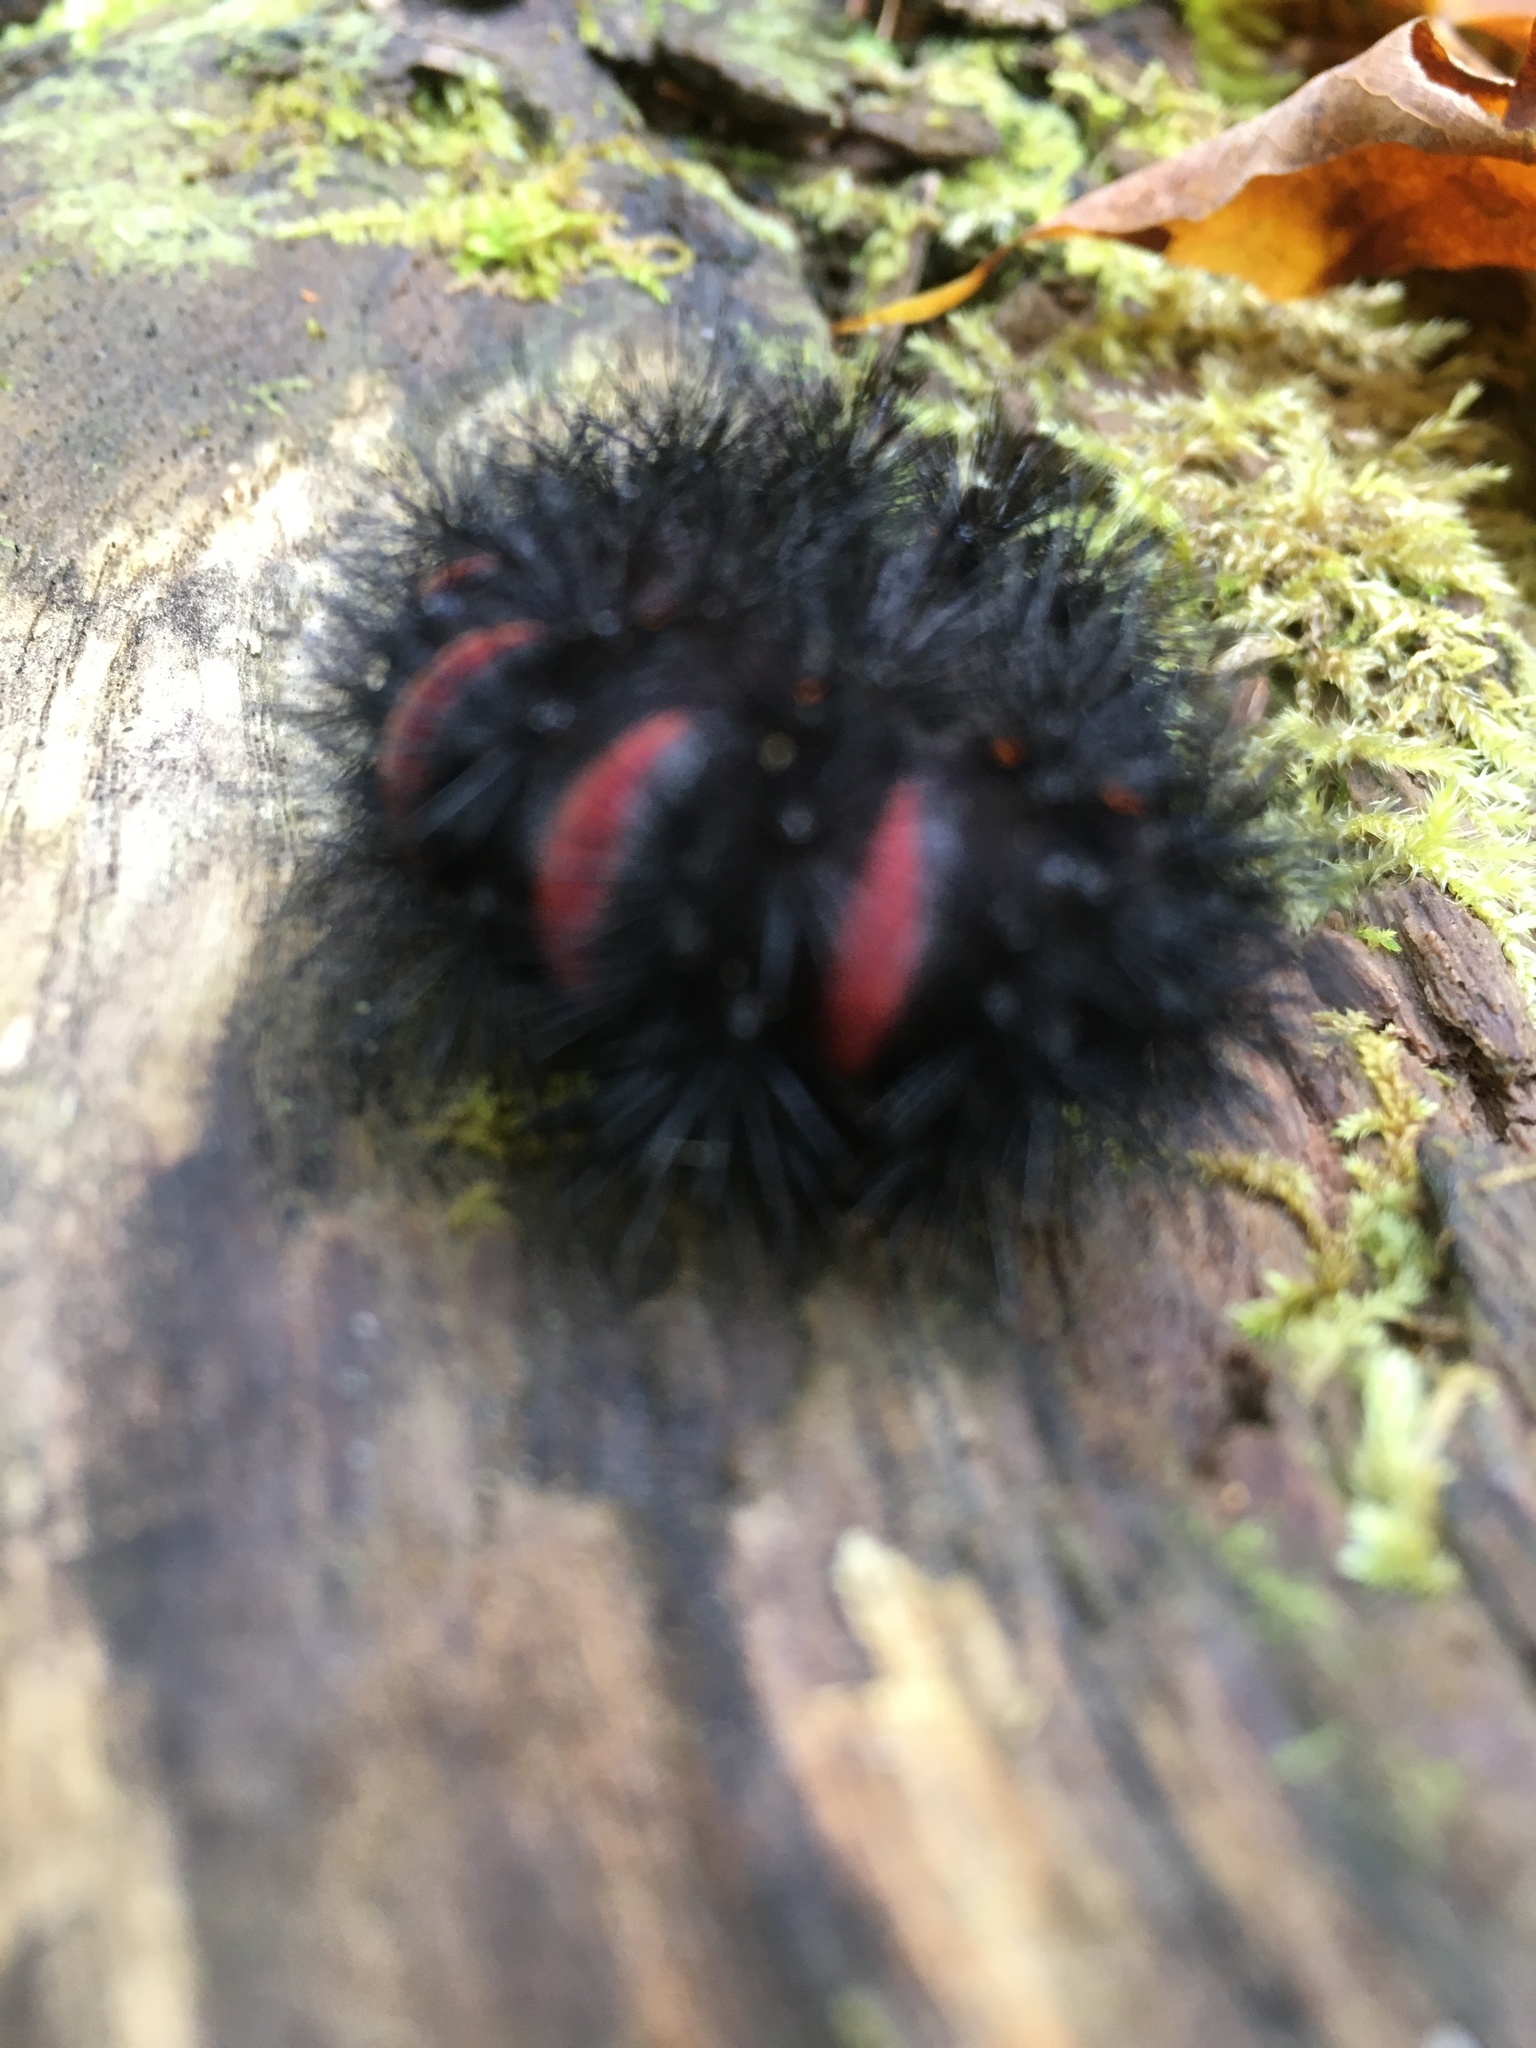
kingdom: Animalia
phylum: Arthropoda
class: Insecta
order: Lepidoptera
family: Erebidae
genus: Hypercompe
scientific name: Hypercompe scribonia
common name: Giant leopard moth
